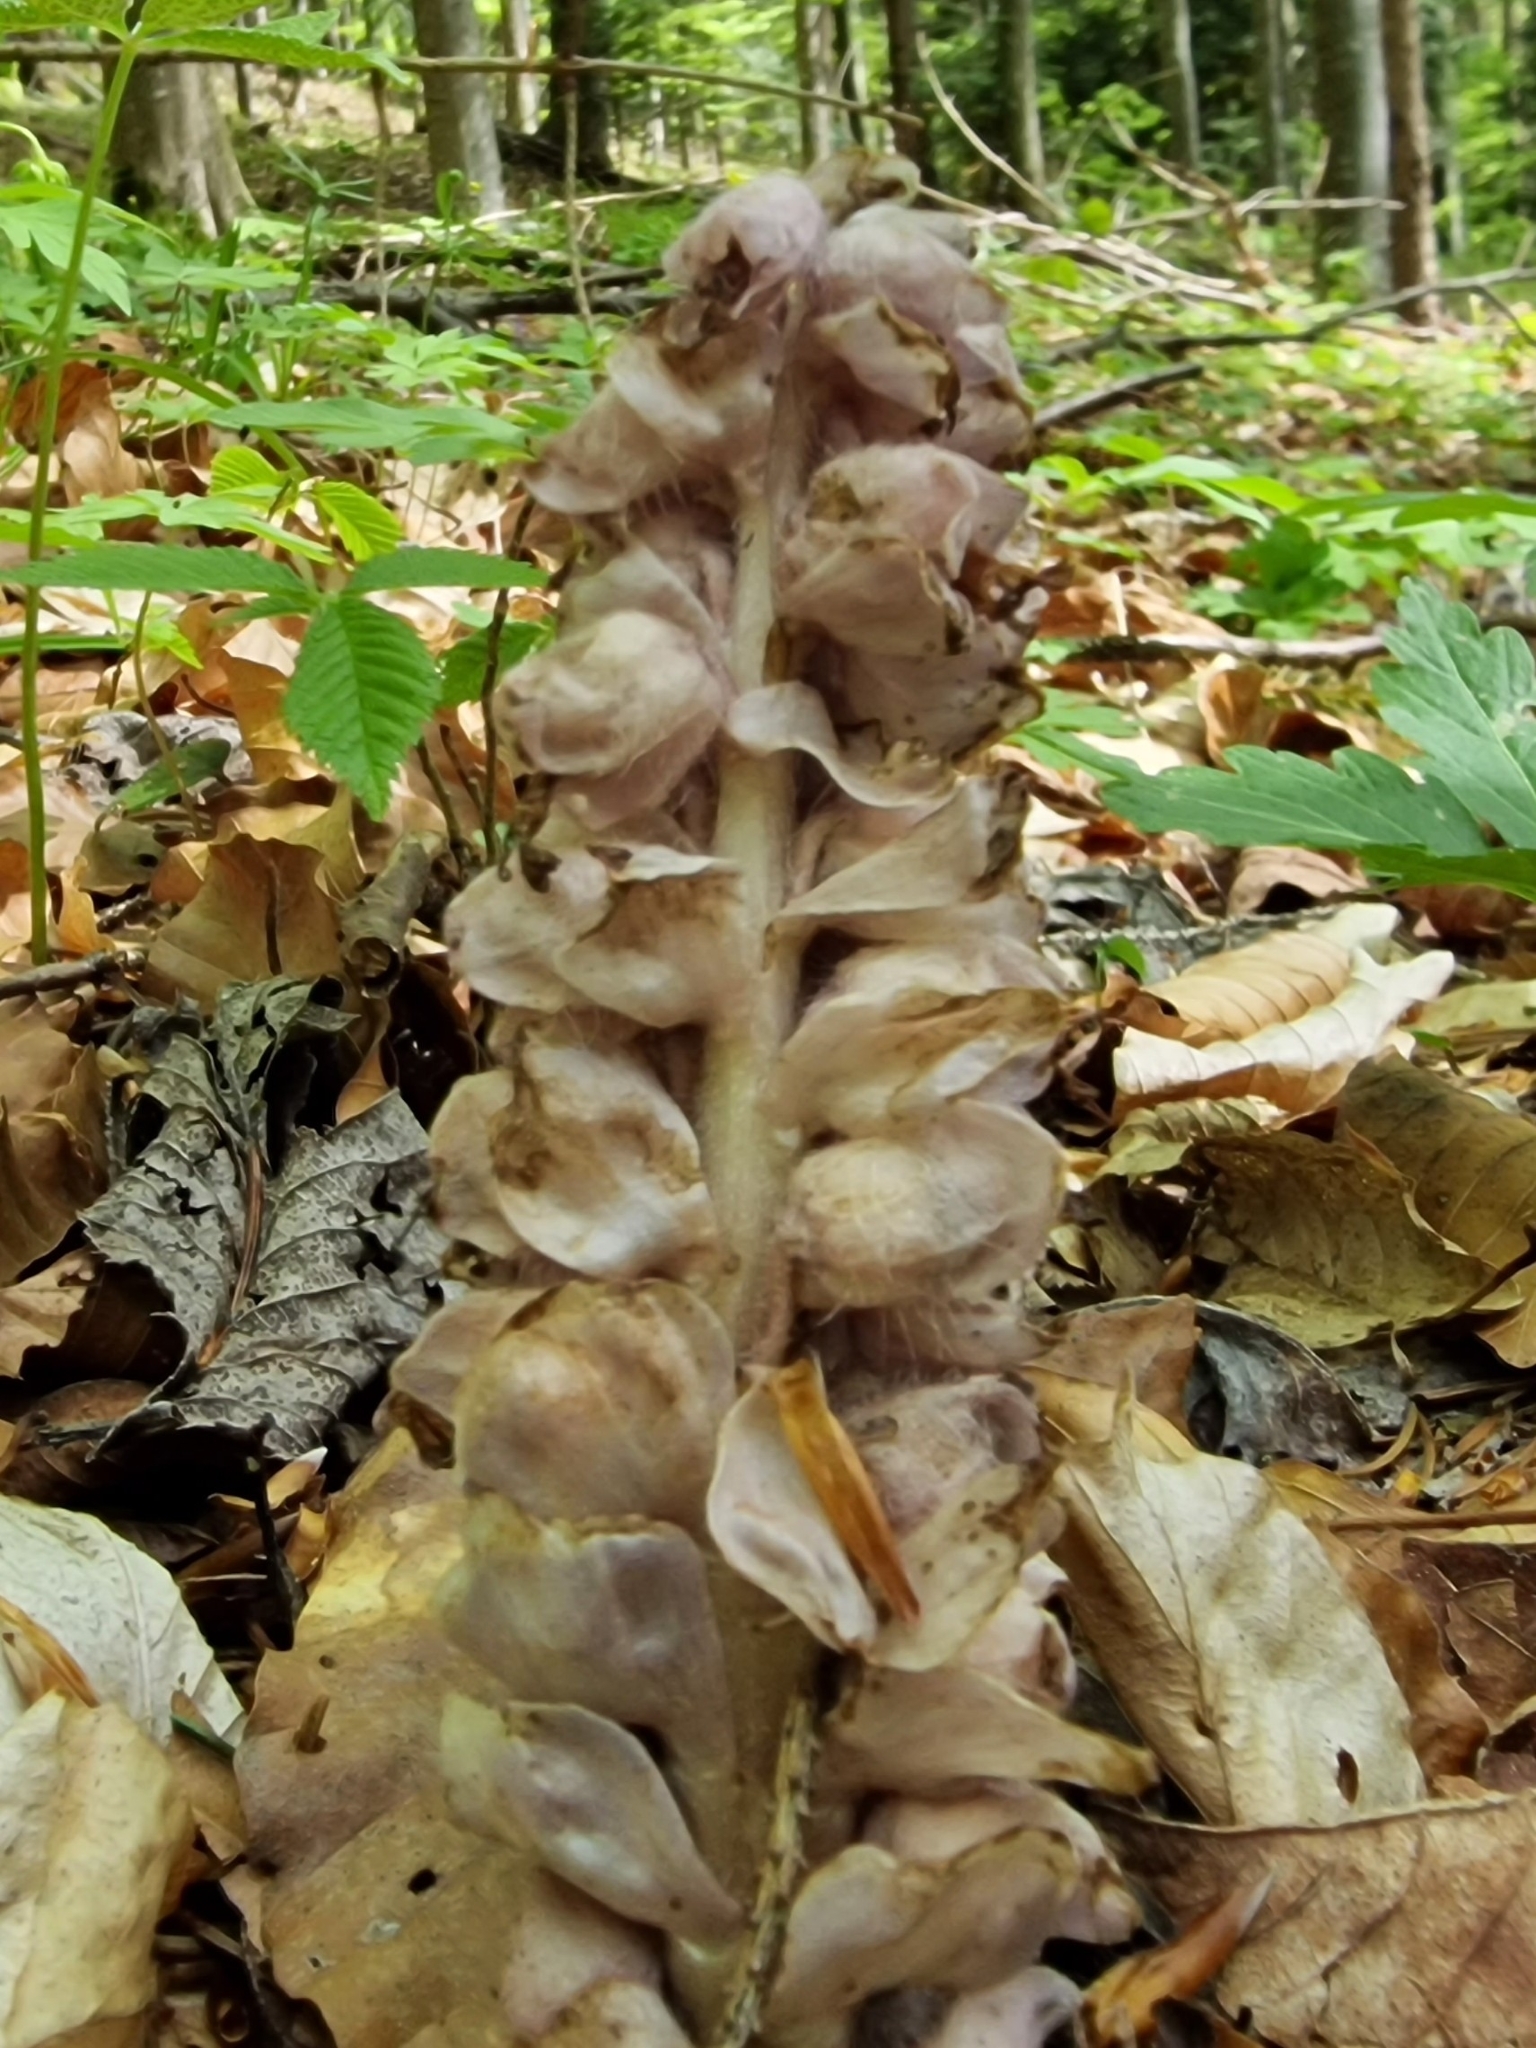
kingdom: Plantae
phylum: Tracheophyta
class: Magnoliopsida
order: Lamiales
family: Orobanchaceae
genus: Lathraea
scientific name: Lathraea squamaria
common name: Toothwort
